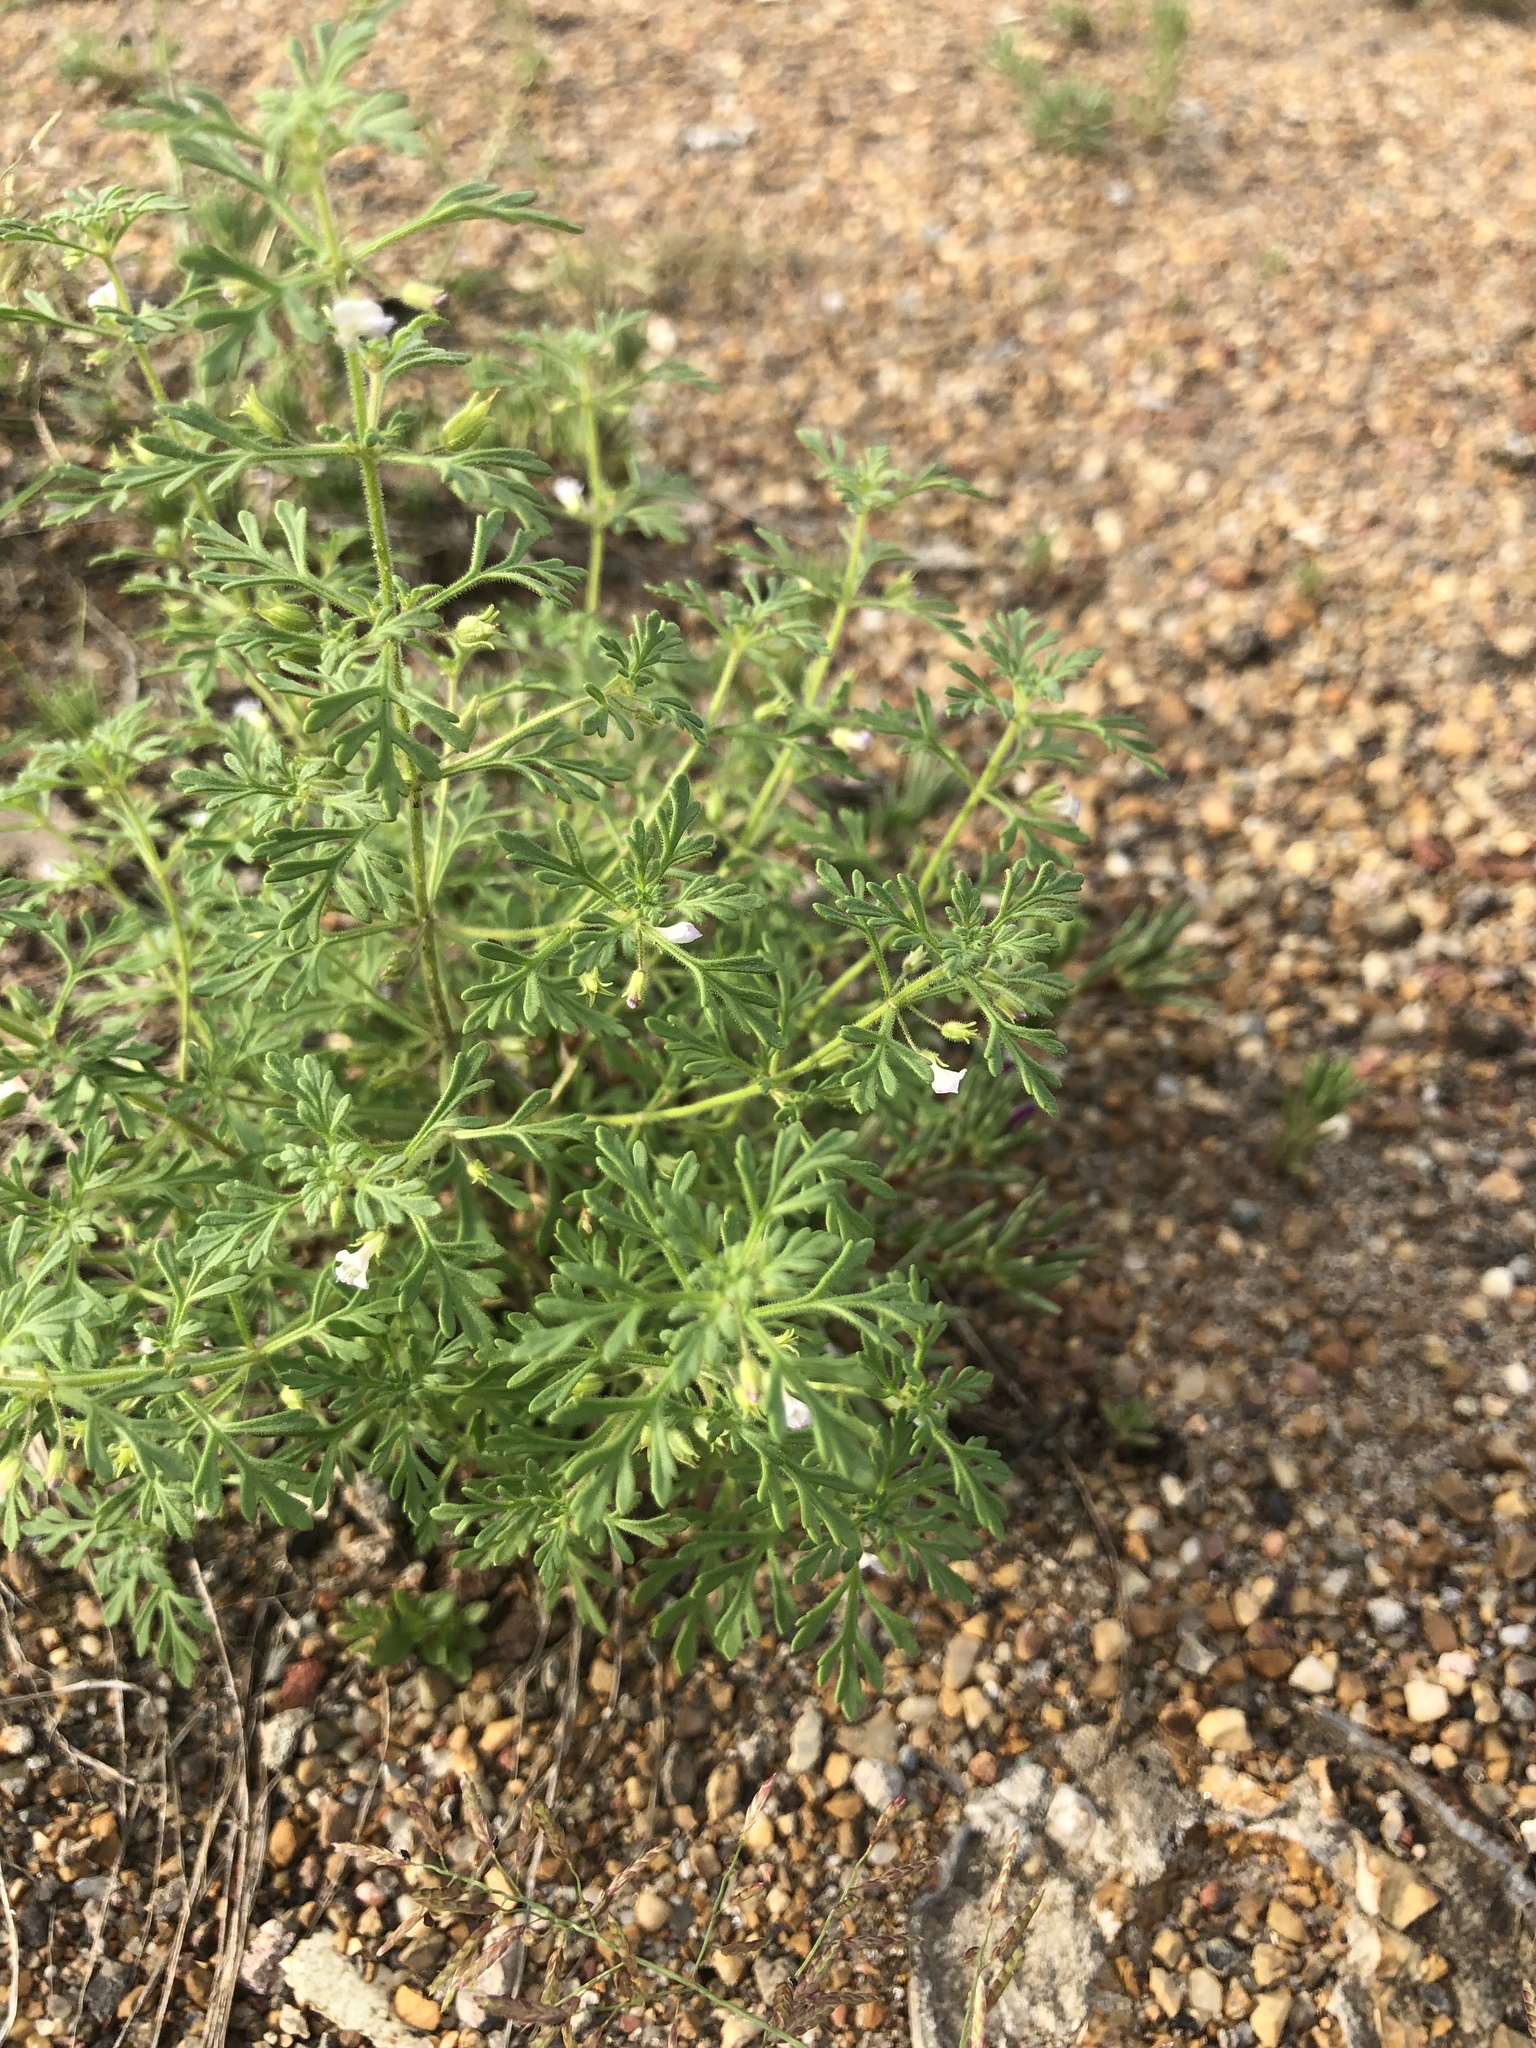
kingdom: Plantae
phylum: Tracheophyta
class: Magnoliopsida
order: Lamiales
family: Plantaginaceae
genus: Leucospora
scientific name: Leucospora multifida
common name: Narrow-leaf paleseed
